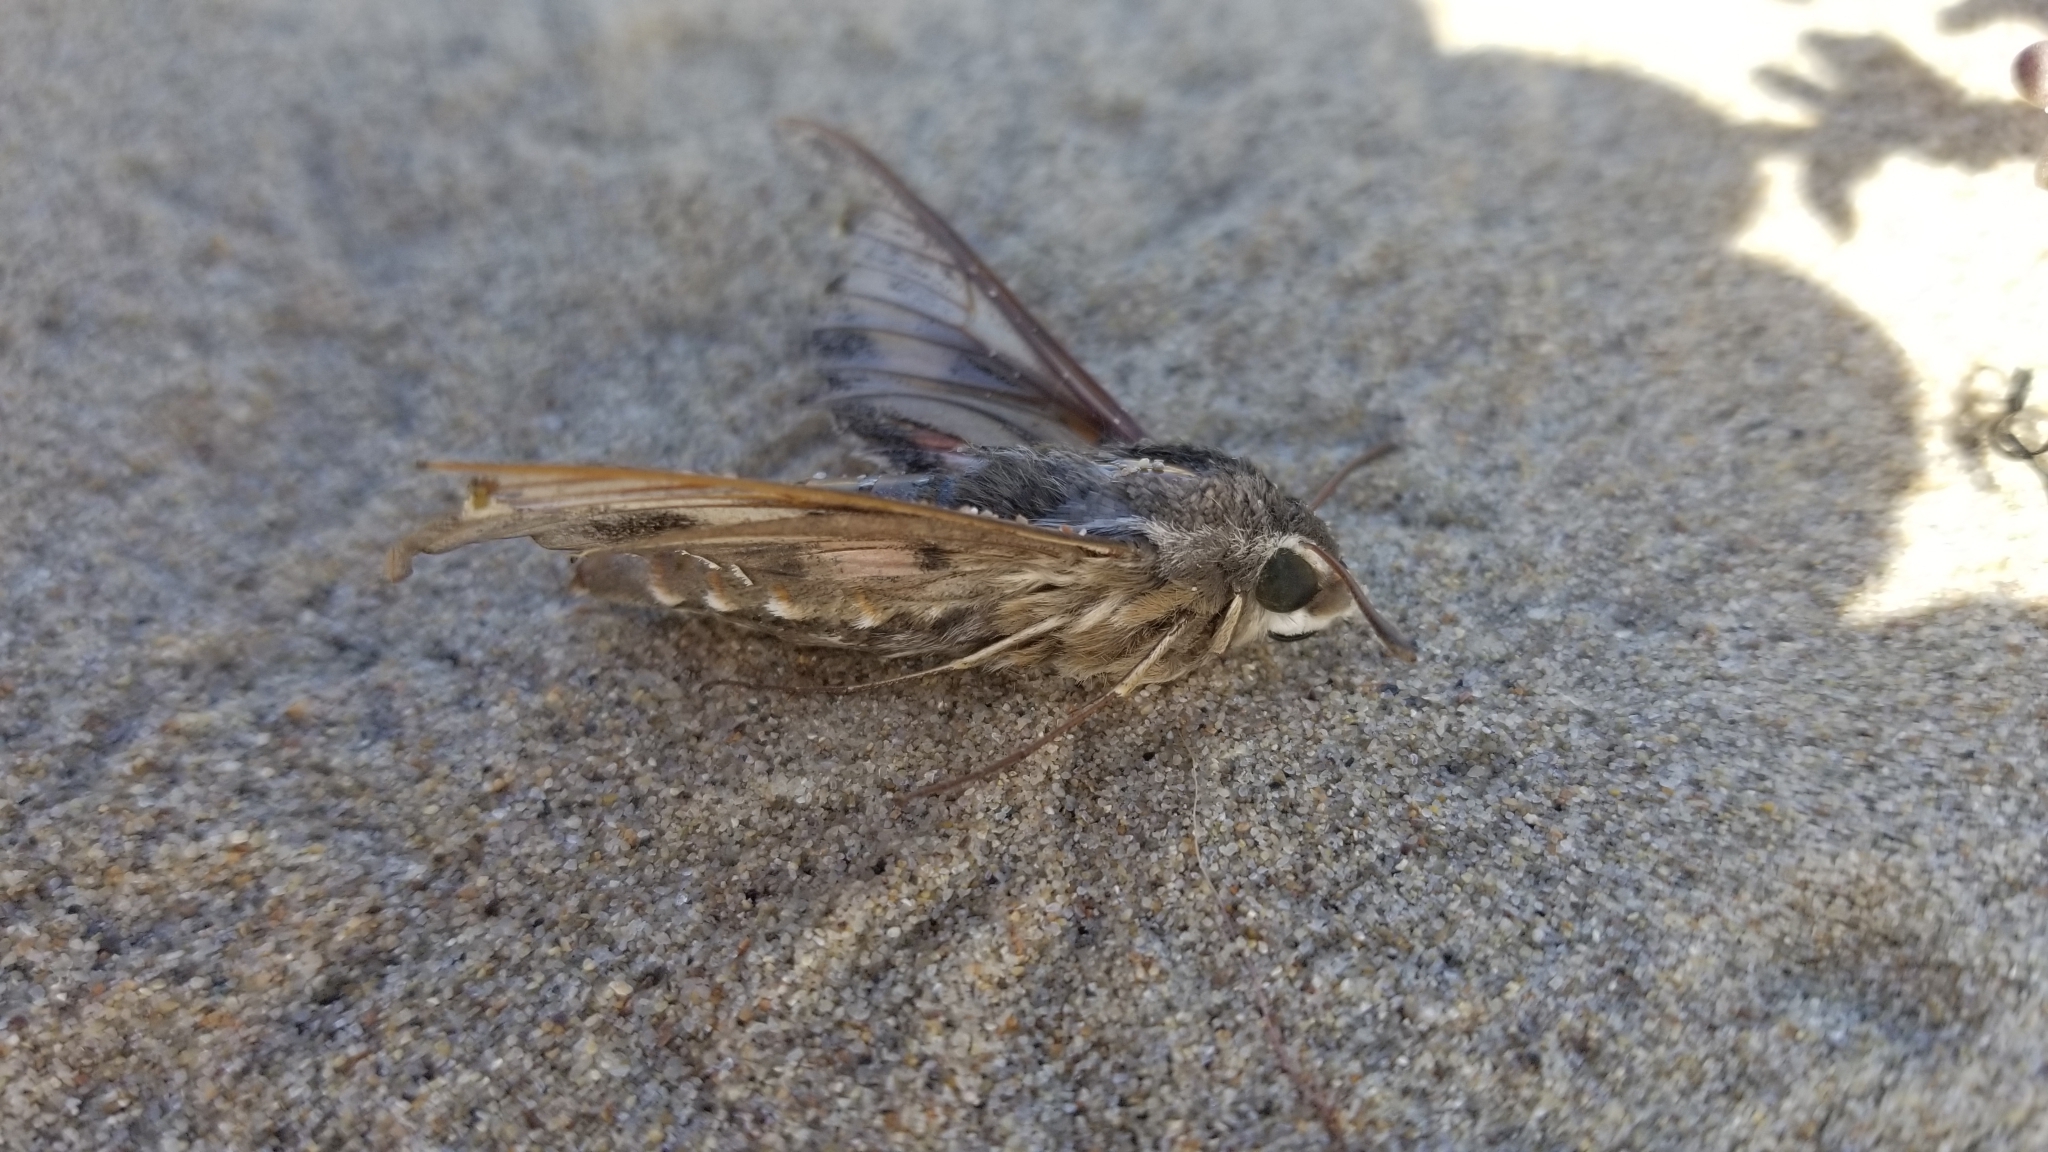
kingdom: Animalia
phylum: Arthropoda
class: Insecta
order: Lepidoptera
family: Sphingidae
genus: Hyles
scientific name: Hyles lineata
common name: White-lined sphinx
